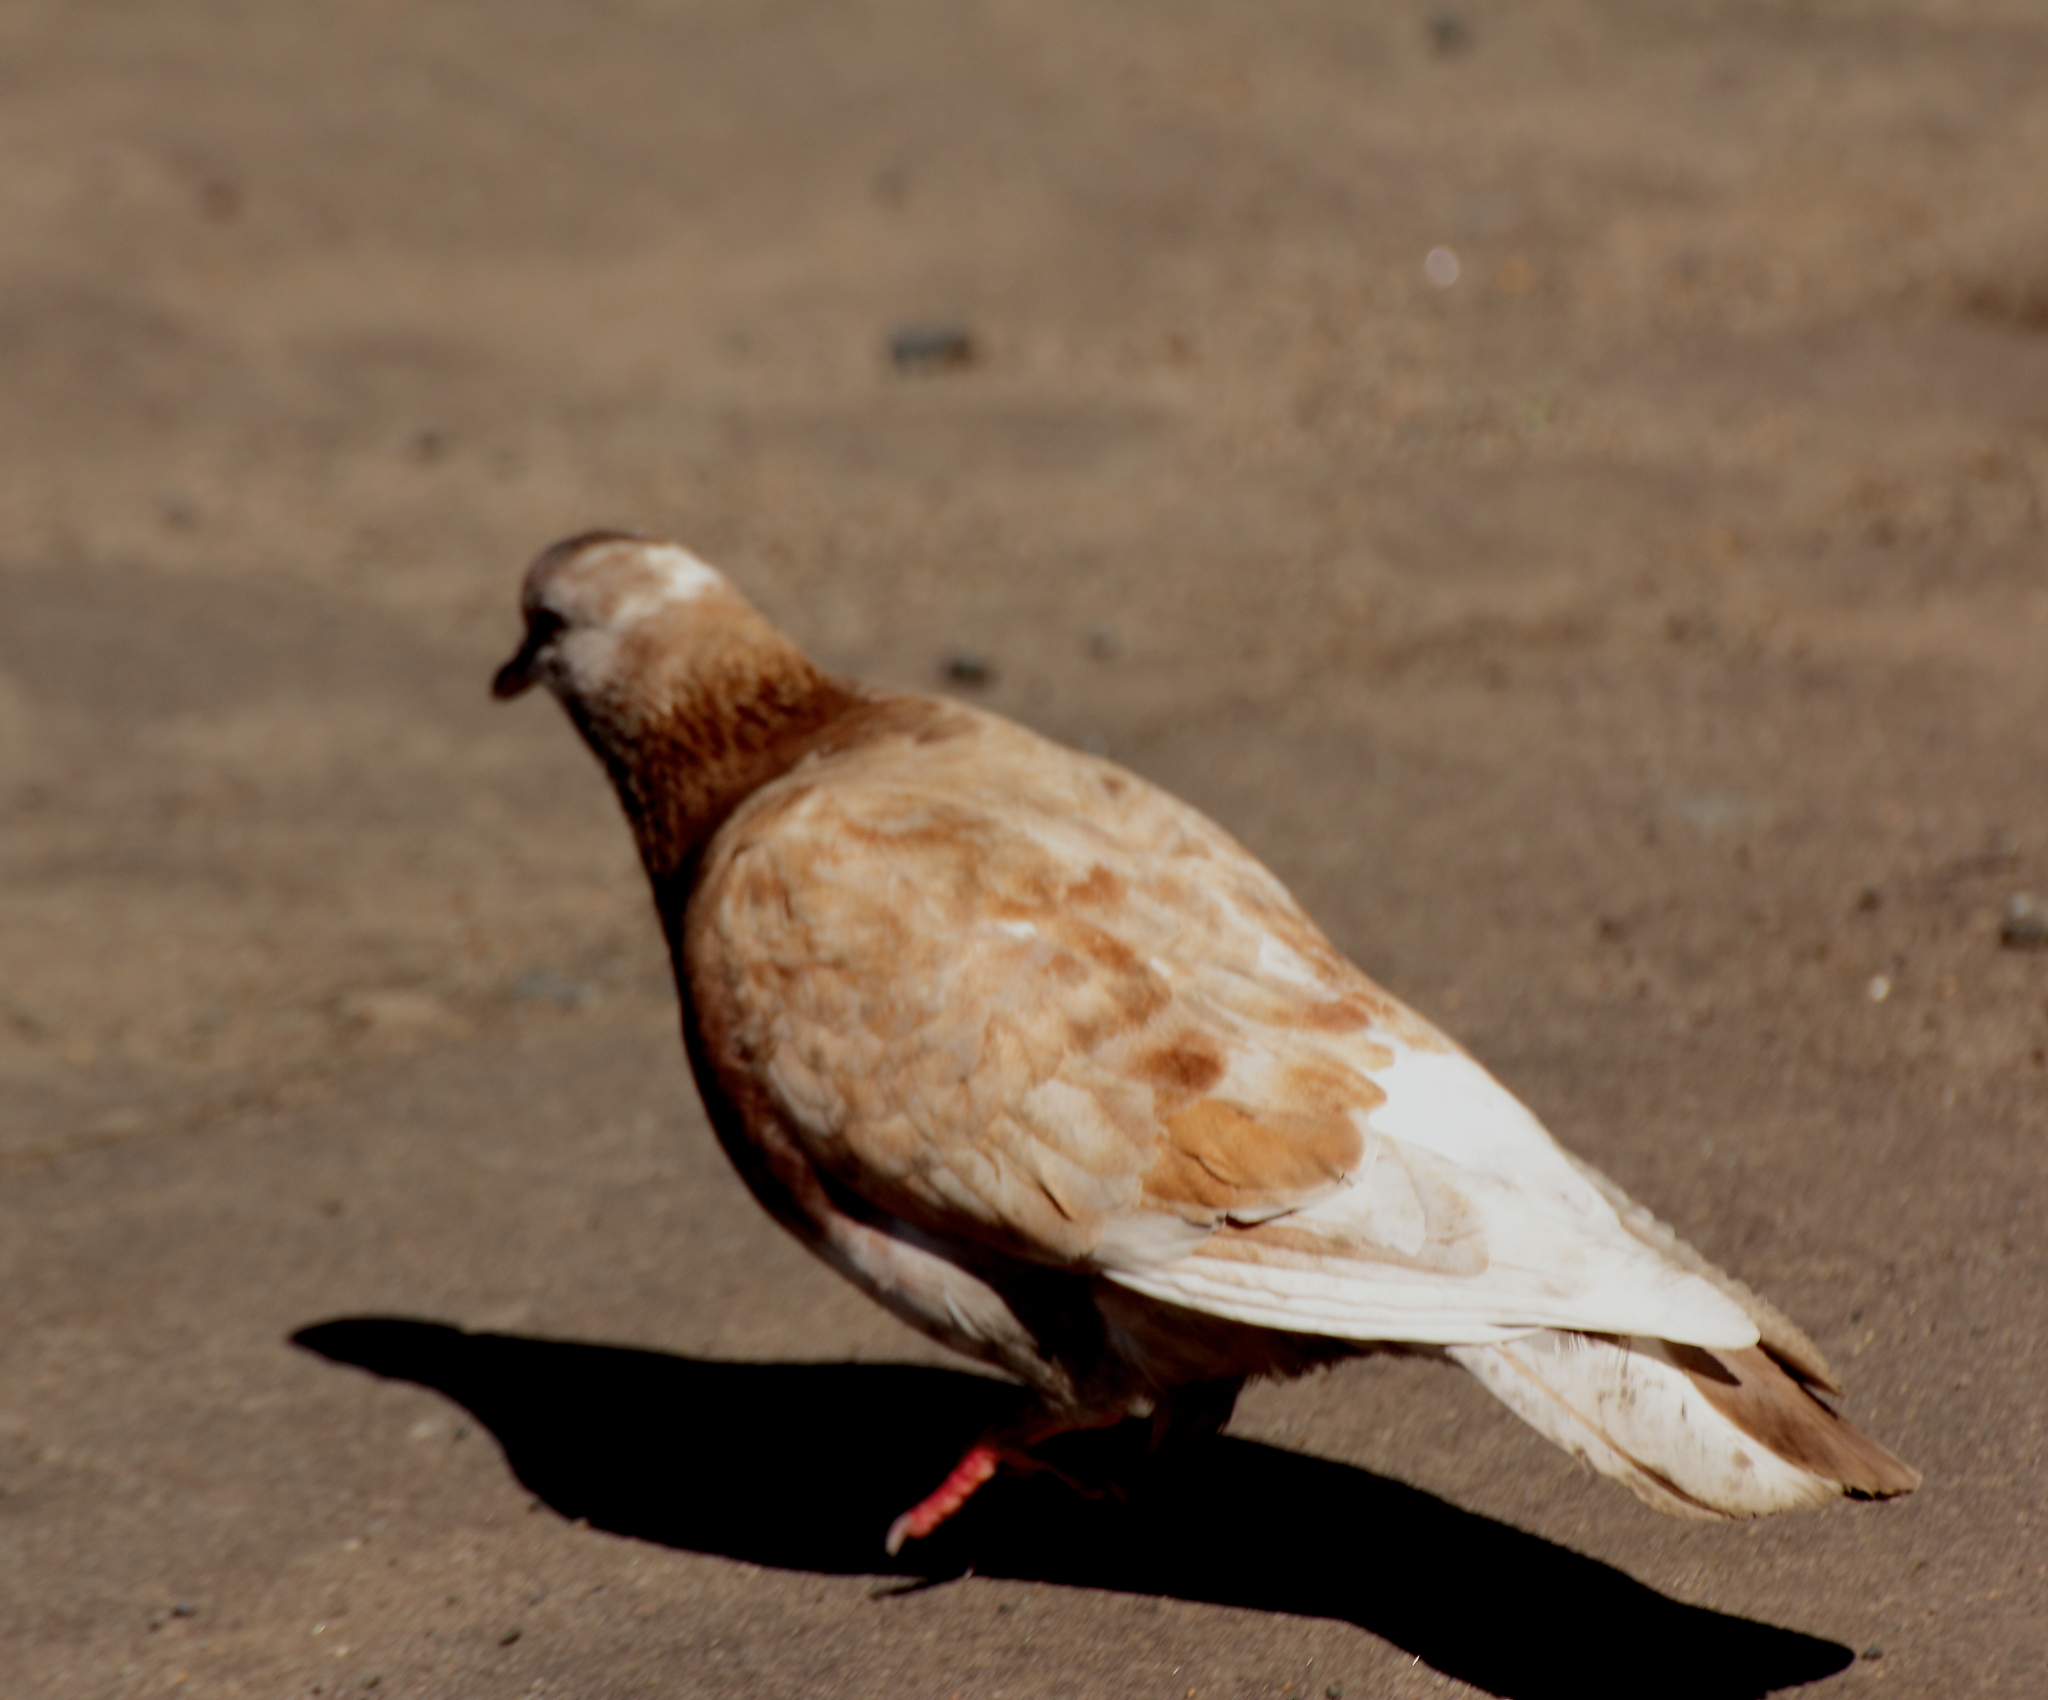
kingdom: Animalia
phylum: Chordata
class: Aves
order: Columbiformes
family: Columbidae
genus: Columba
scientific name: Columba livia
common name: Rock pigeon
